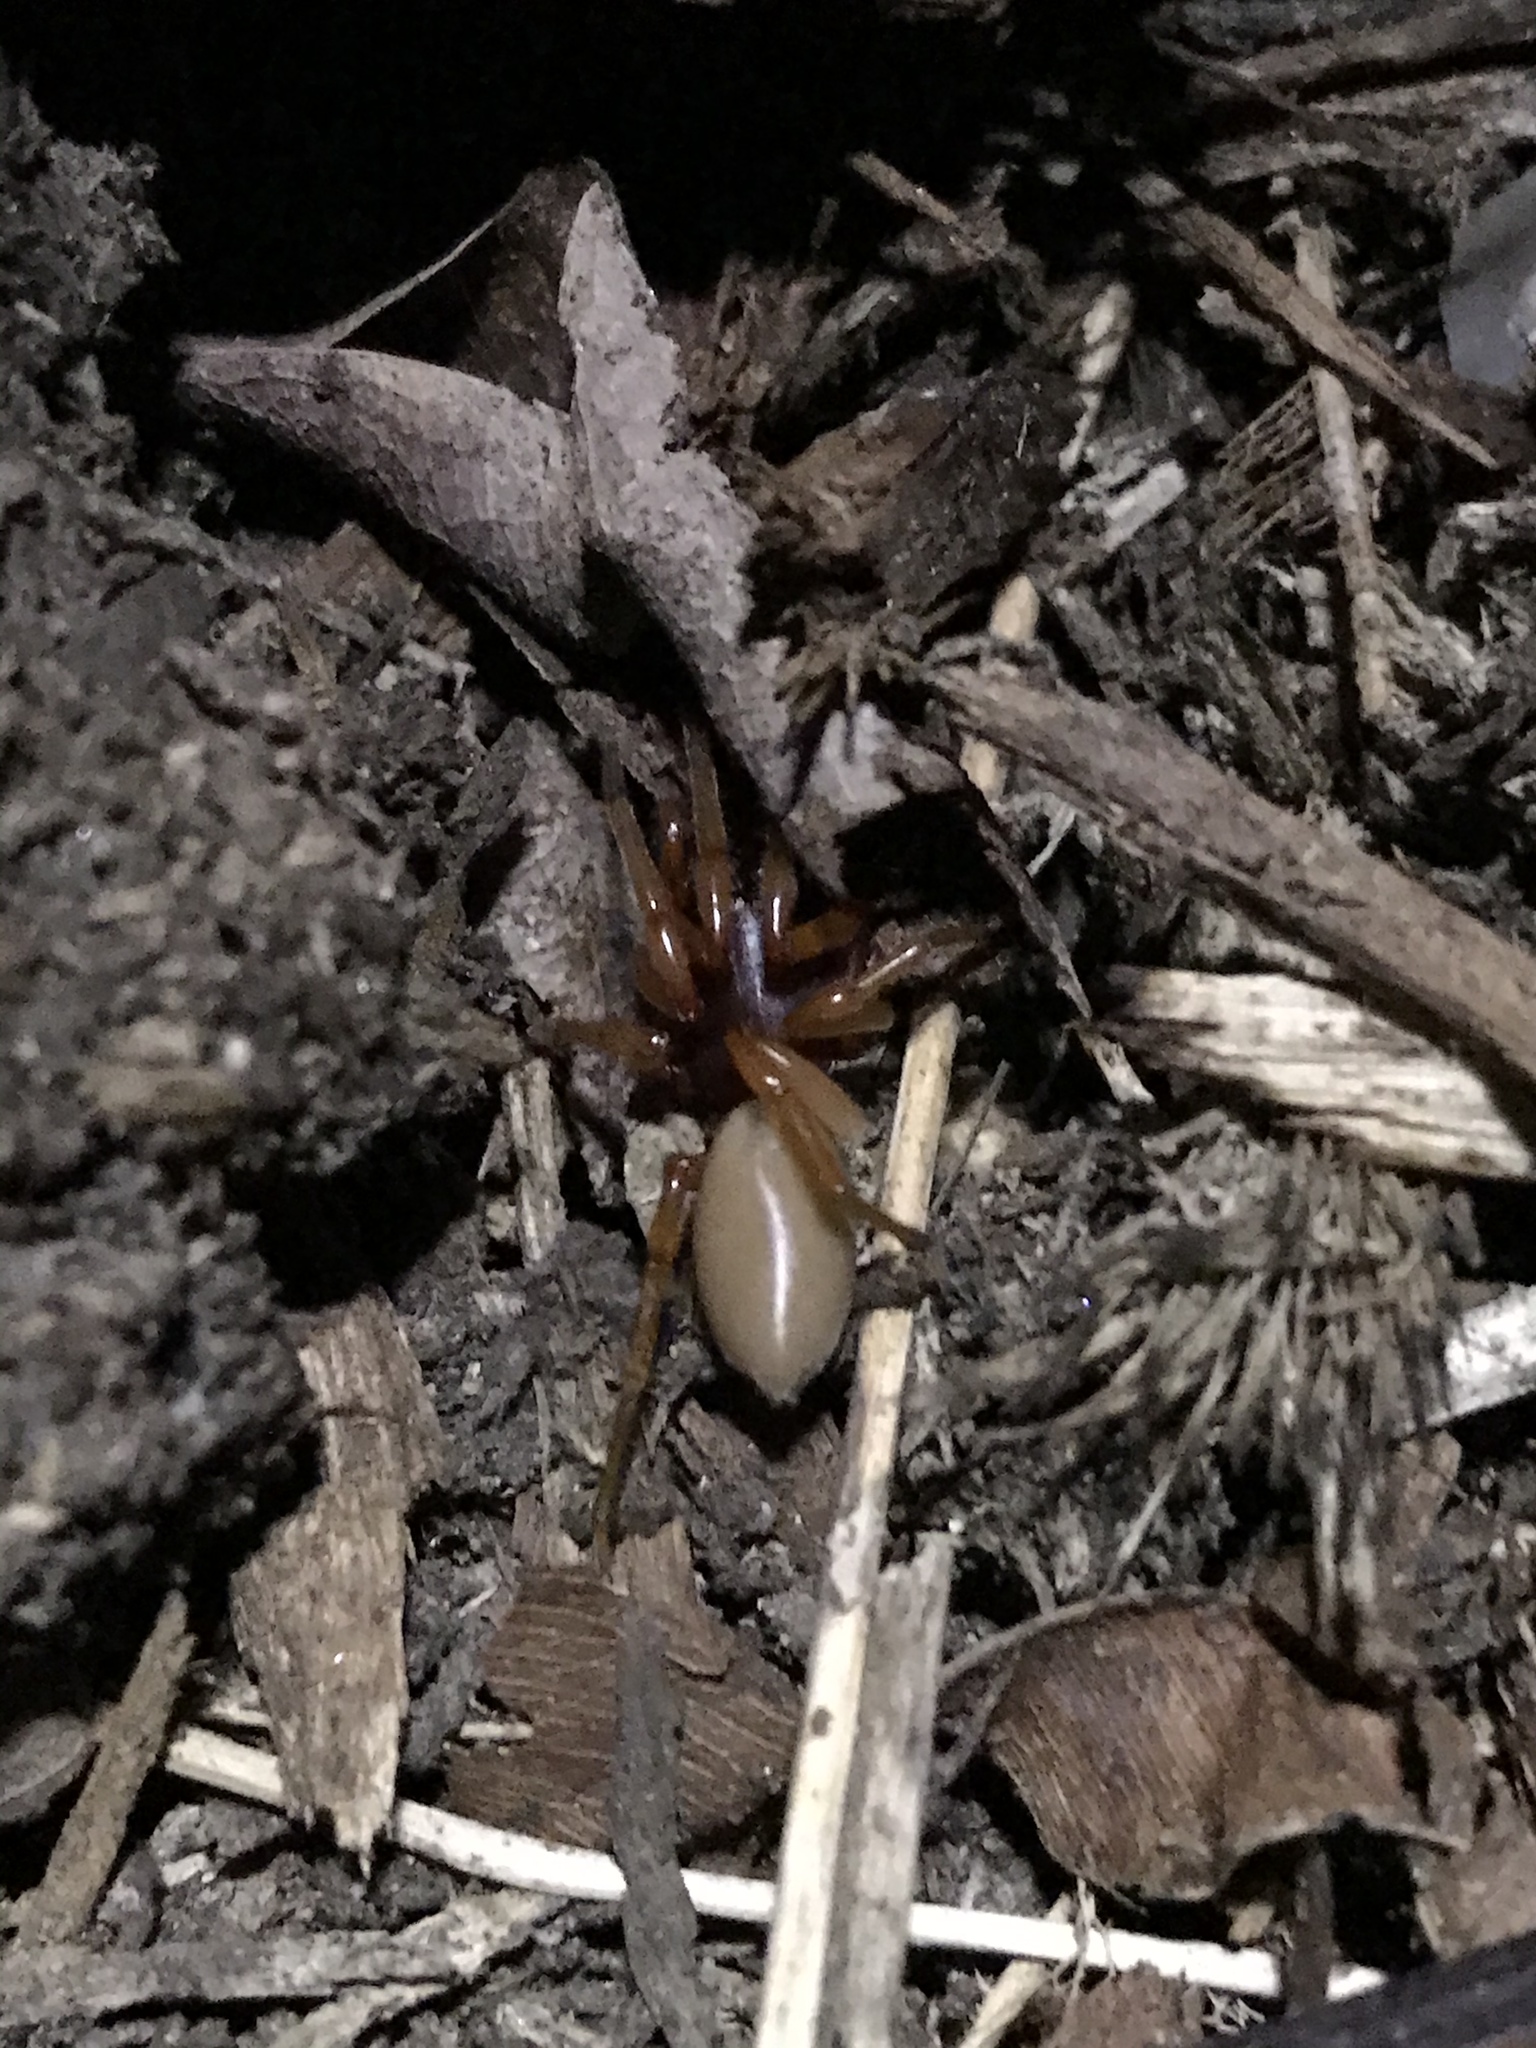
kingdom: Animalia
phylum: Arthropoda
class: Arachnida
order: Araneae
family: Dysderidae
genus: Dysdera
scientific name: Dysdera crocata
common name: Woodlouse spider
